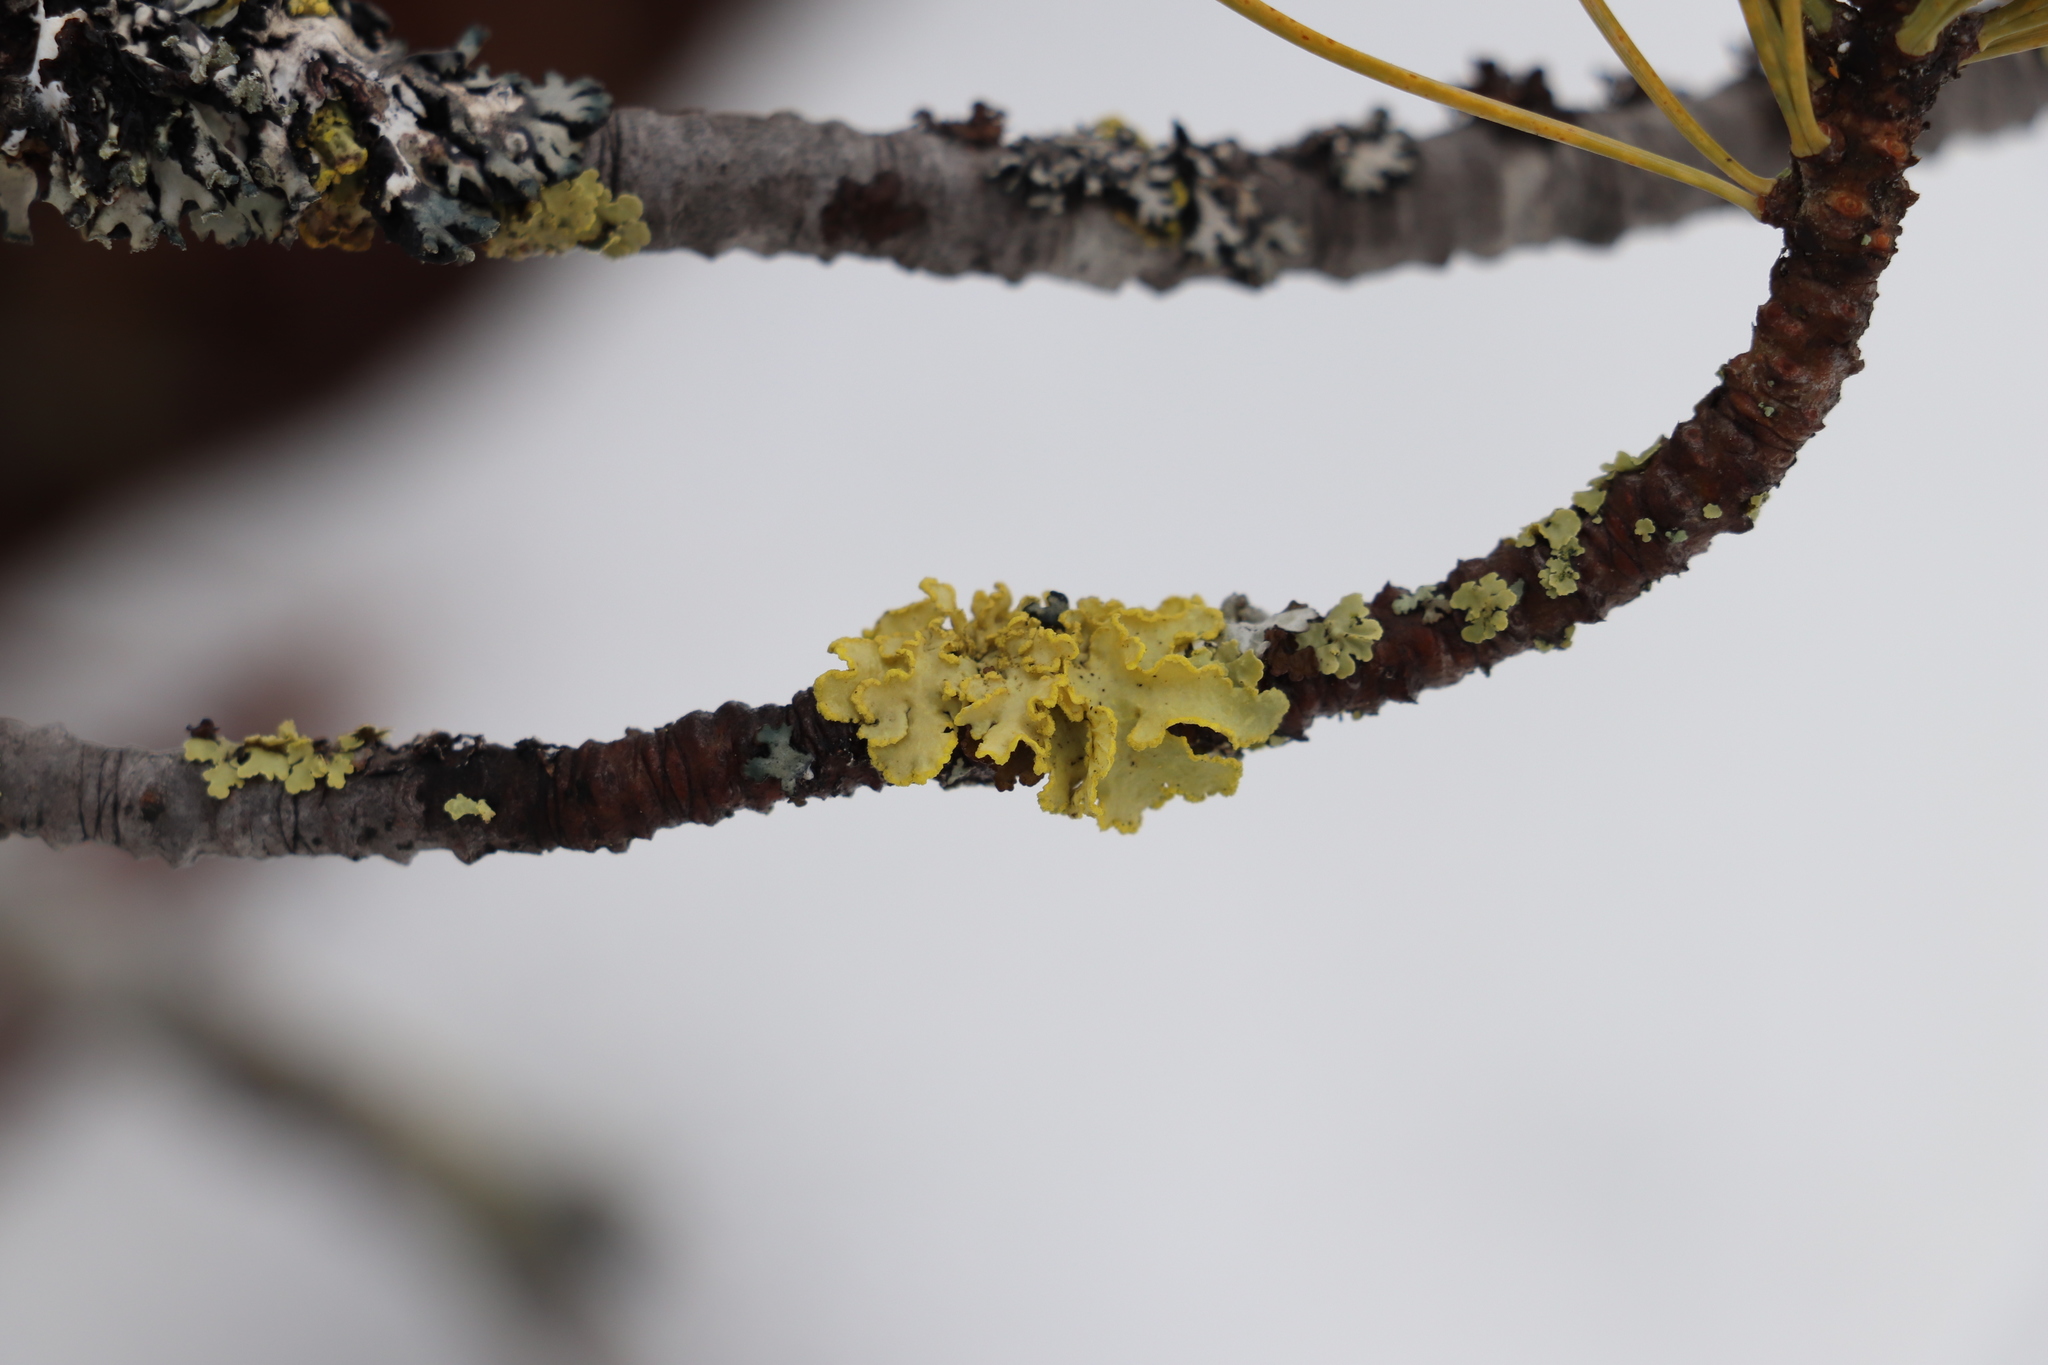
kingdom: Fungi
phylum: Ascomycota
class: Lecanoromycetes
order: Lecanorales
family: Parmeliaceae
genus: Vulpicida
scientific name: Vulpicida pinastri
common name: Powdered sunshine lichen
